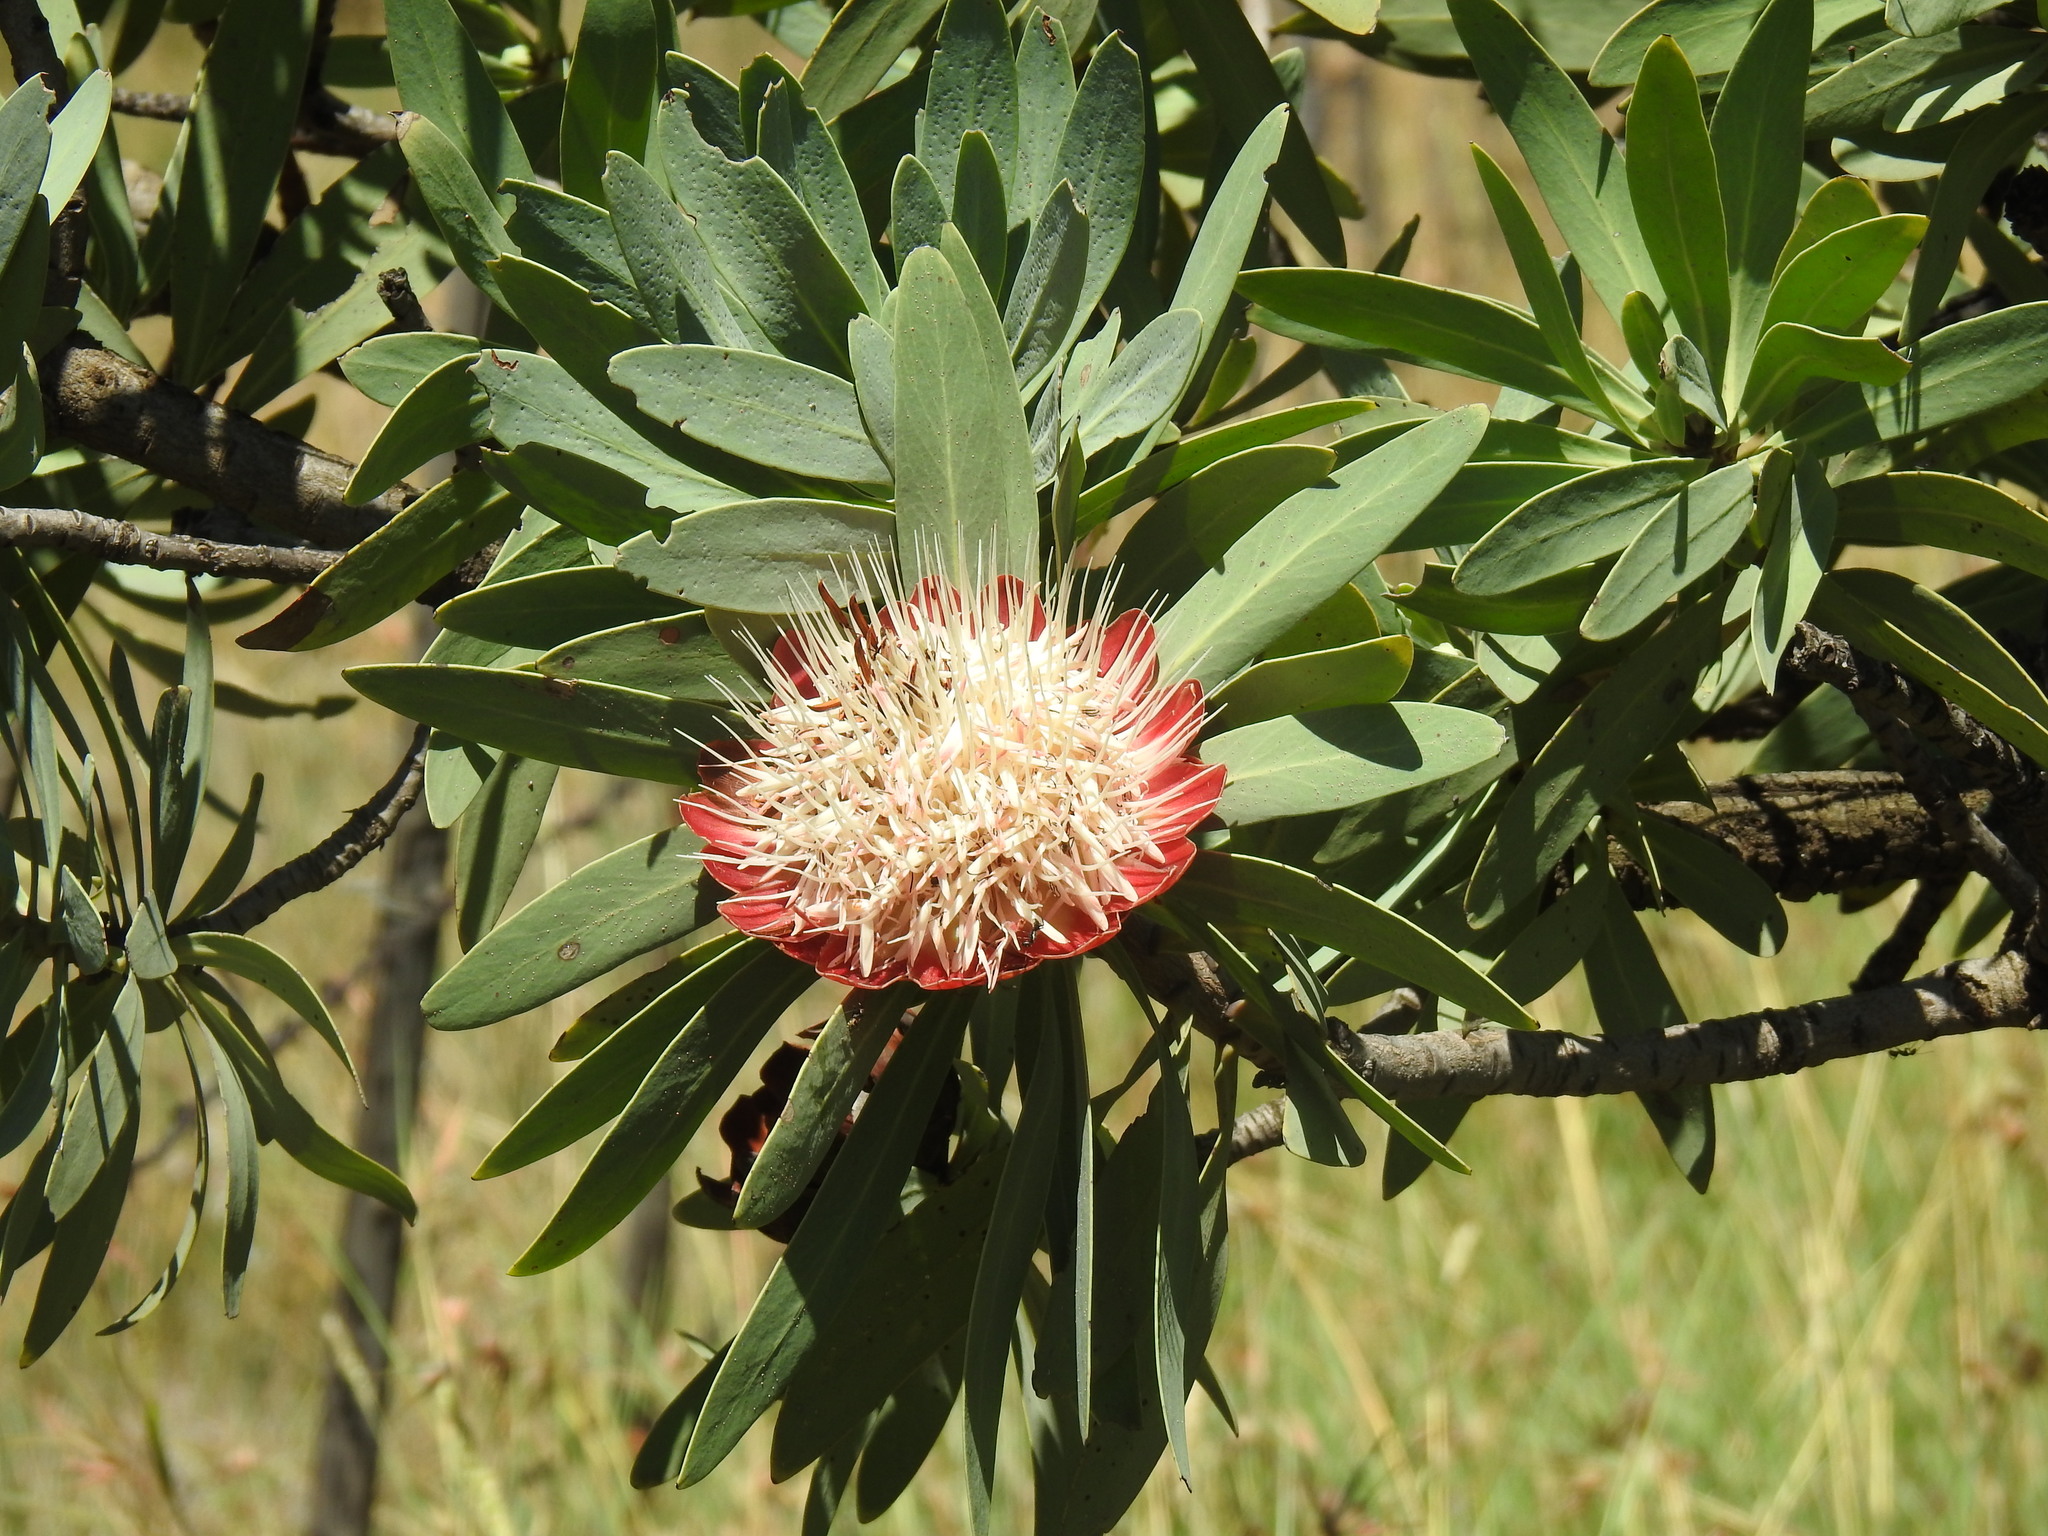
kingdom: Plantae
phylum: Tracheophyta
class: Magnoliopsida
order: Proteales
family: Proteaceae
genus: Protea
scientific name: Protea caffra
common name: Common sugarbush
